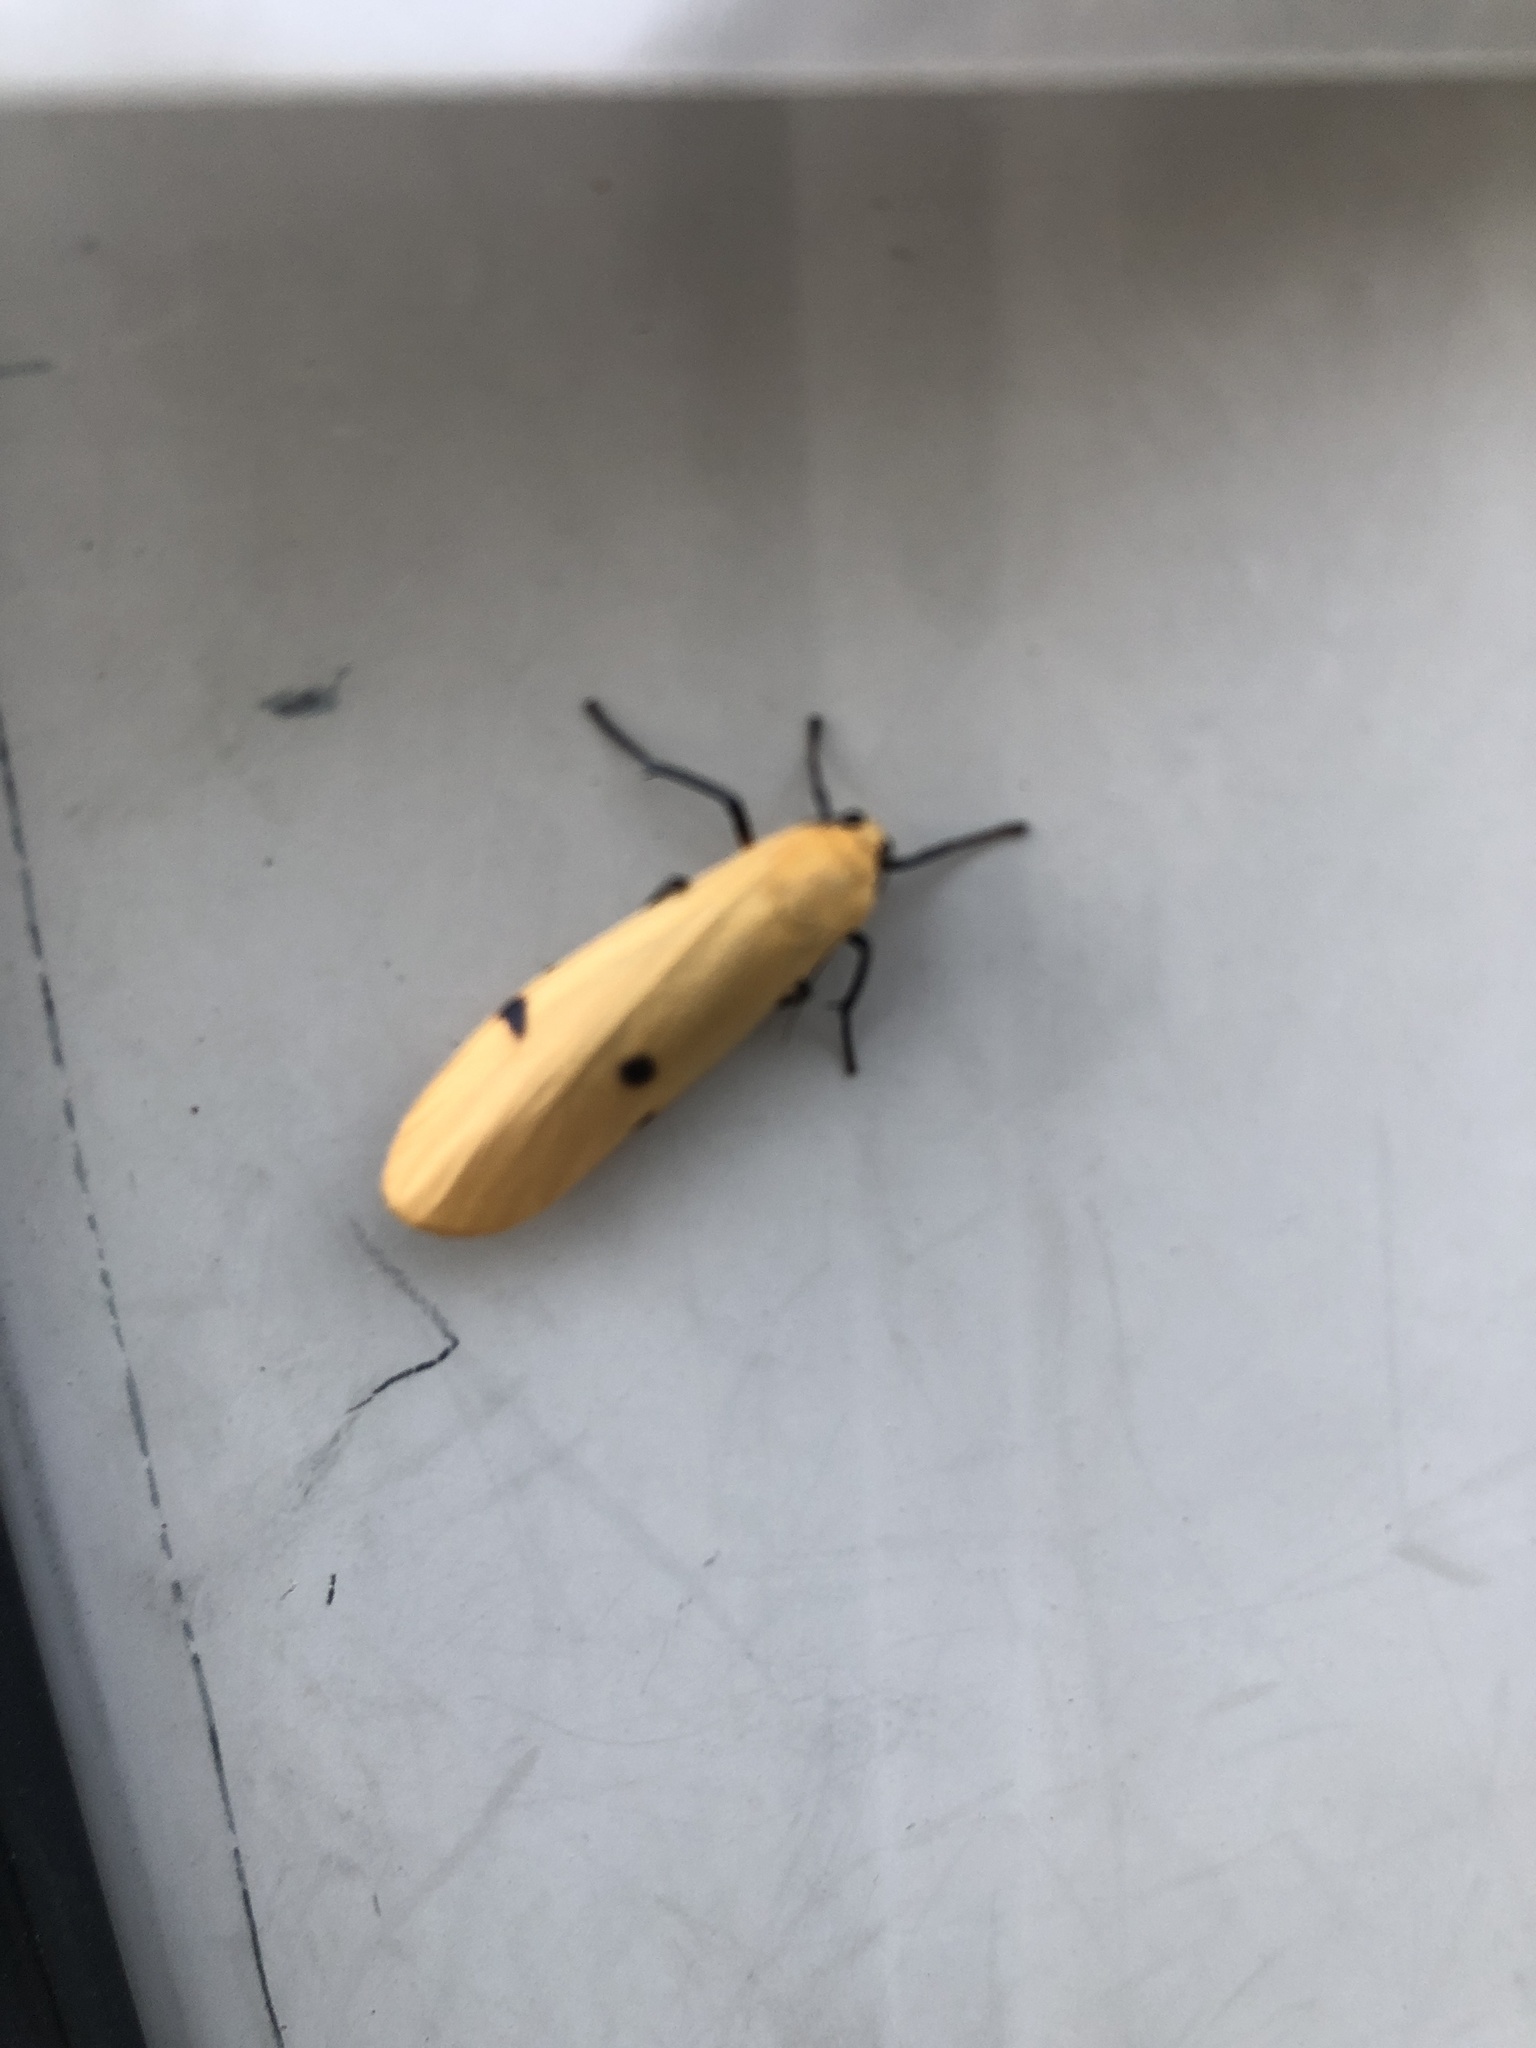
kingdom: Animalia
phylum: Arthropoda
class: Insecta
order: Lepidoptera
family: Erebidae
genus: Lithosia
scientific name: Lithosia quadra
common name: Four-spotted footman
